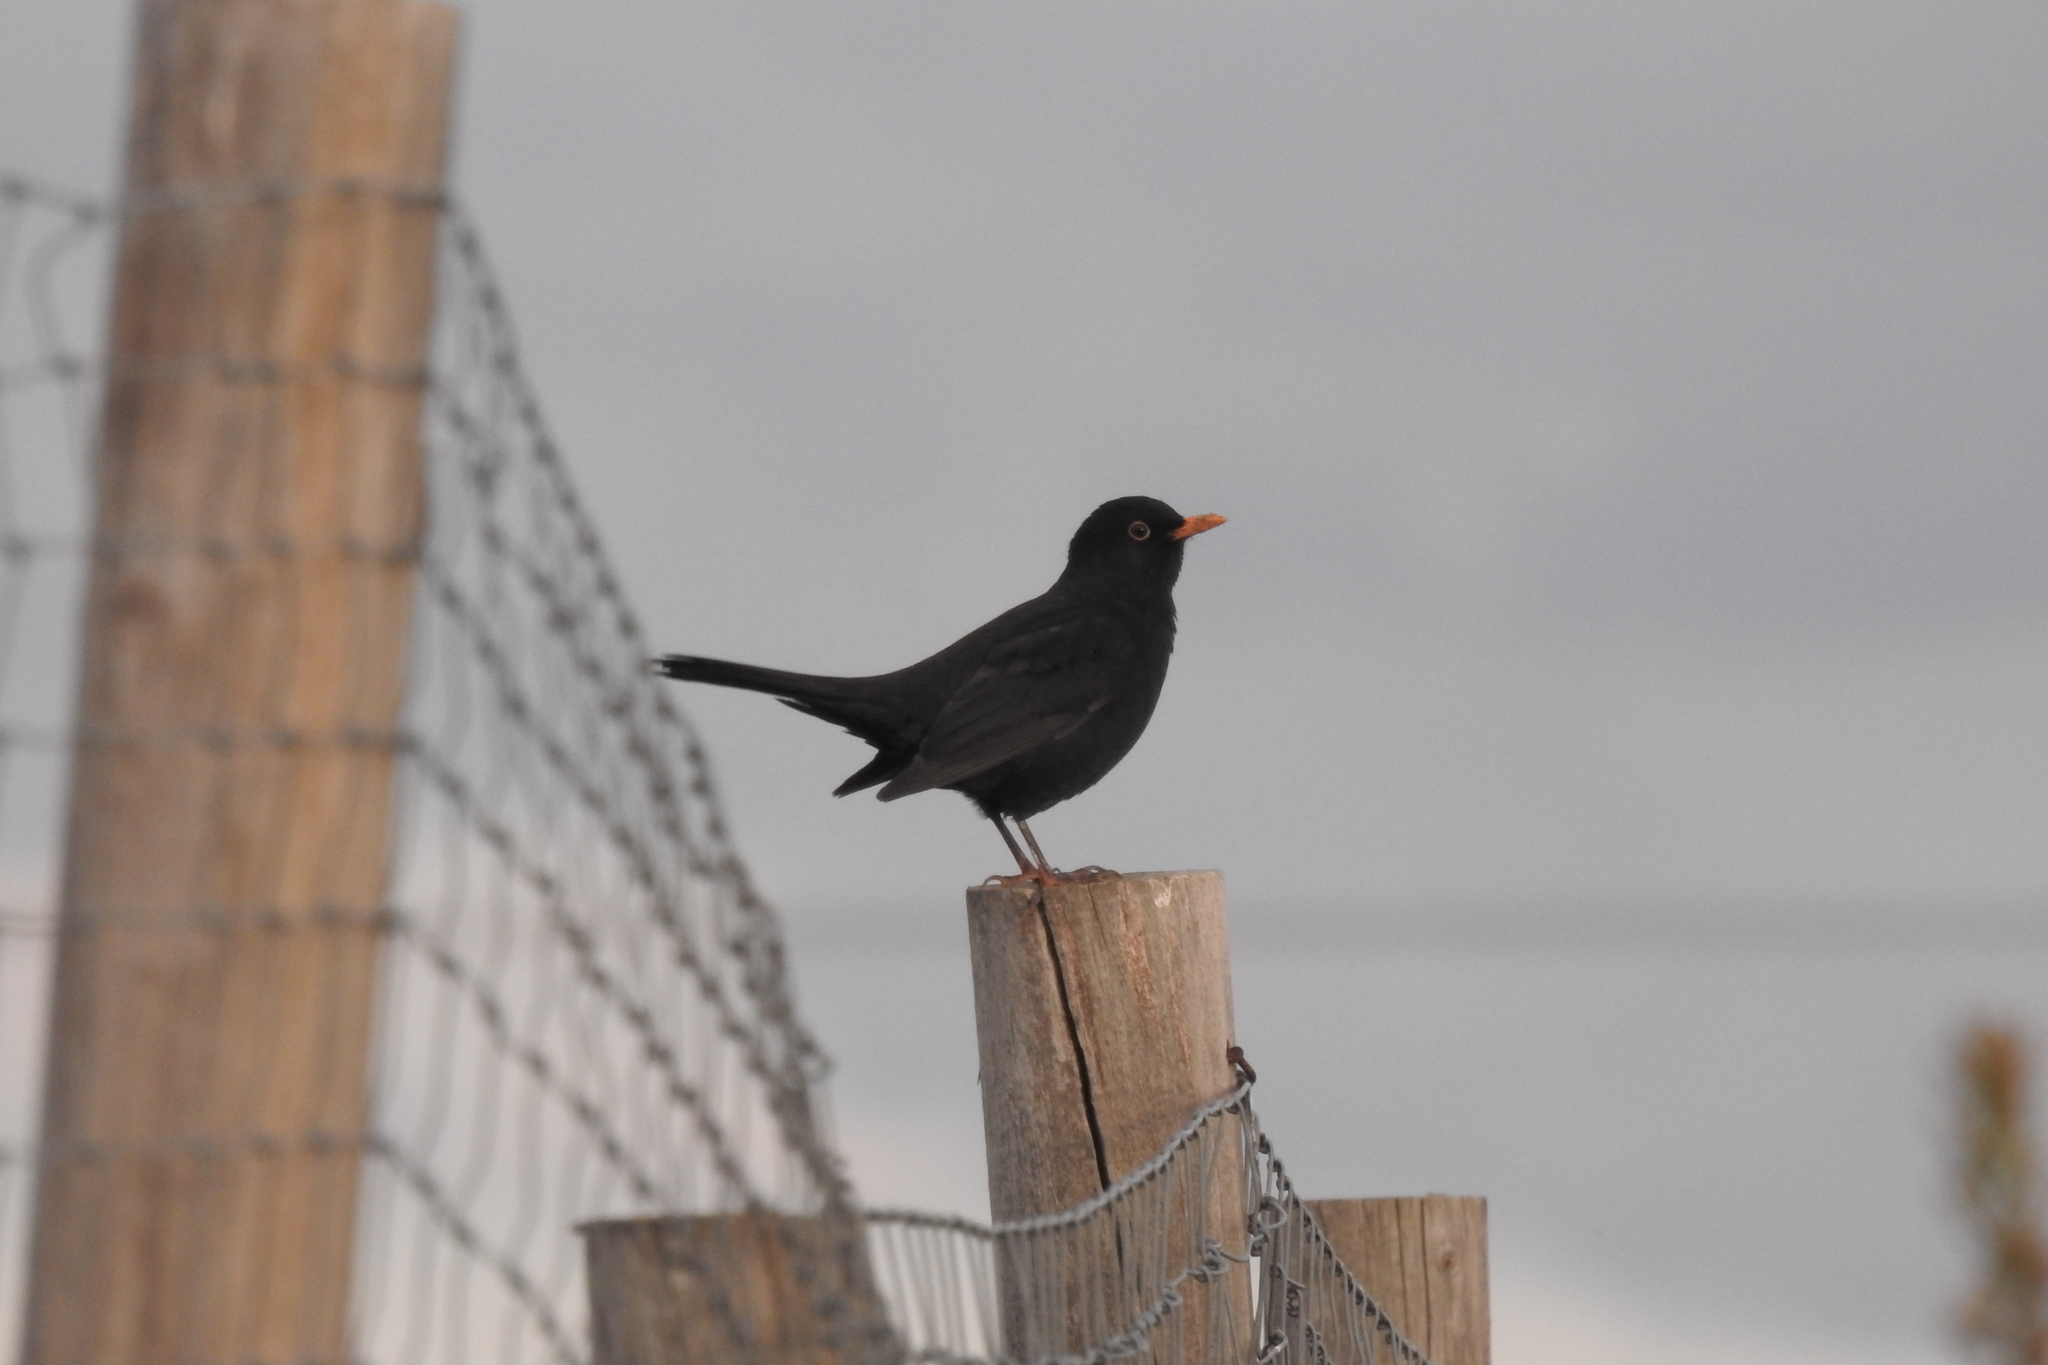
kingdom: Animalia
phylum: Chordata
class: Aves
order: Passeriformes
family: Turdidae
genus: Turdus
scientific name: Turdus merula
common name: Common blackbird
